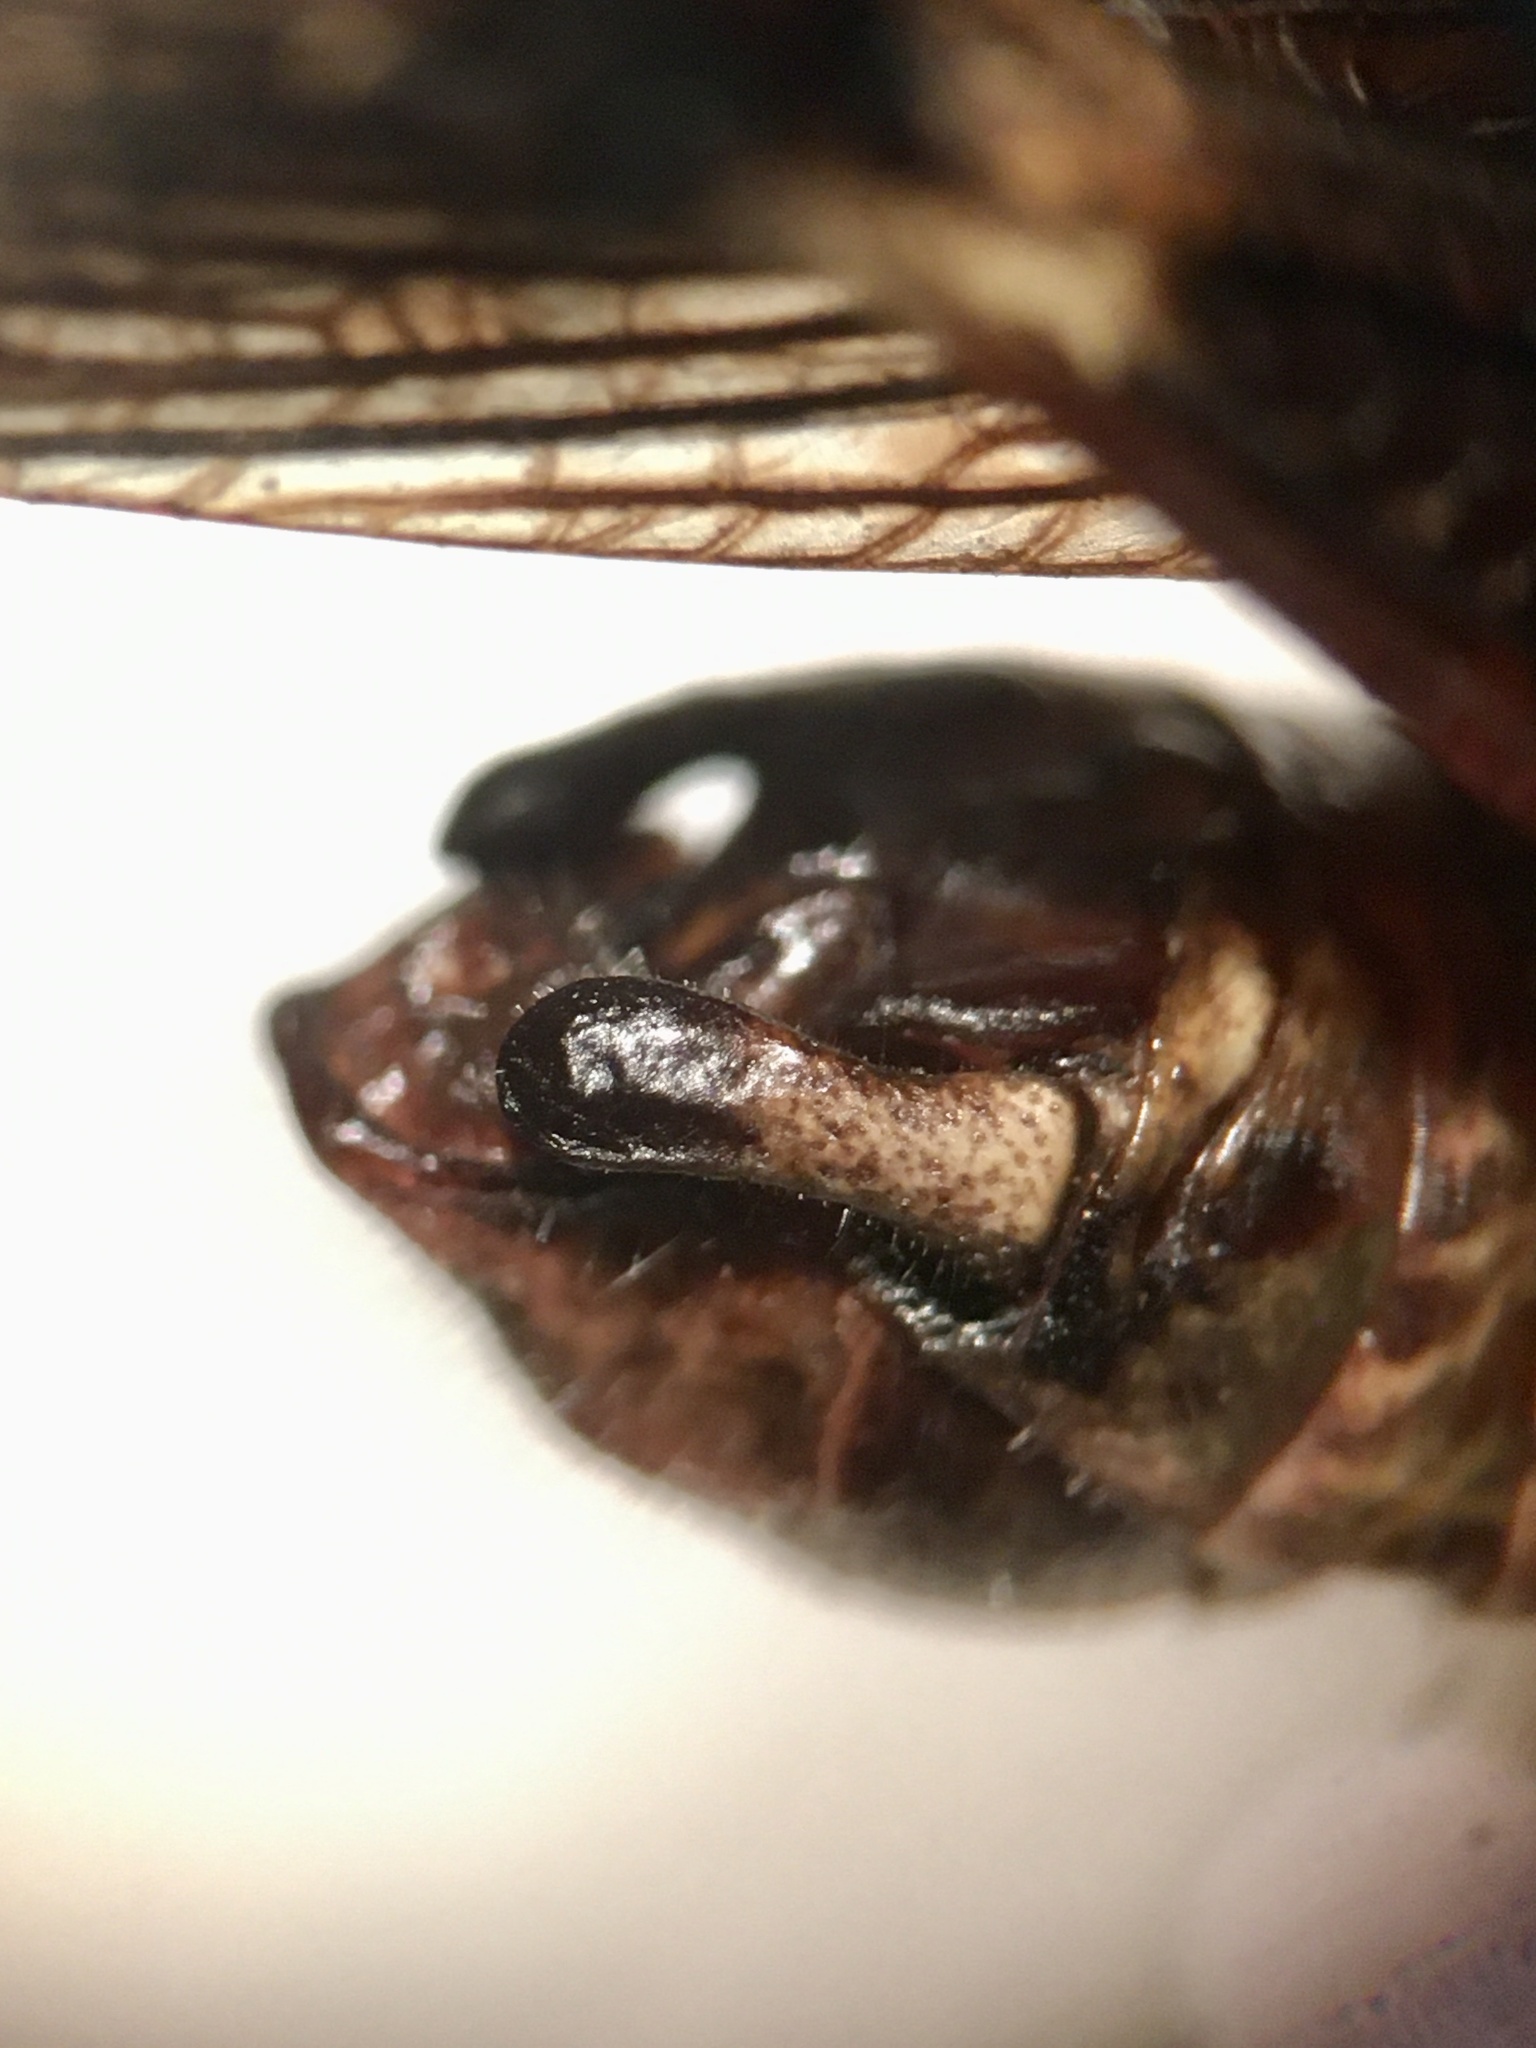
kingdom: Animalia
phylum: Arthropoda
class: Insecta
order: Orthoptera
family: Acrididae
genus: Melanoplus
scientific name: Melanoplus fasciatus
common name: Huckleberry locust
